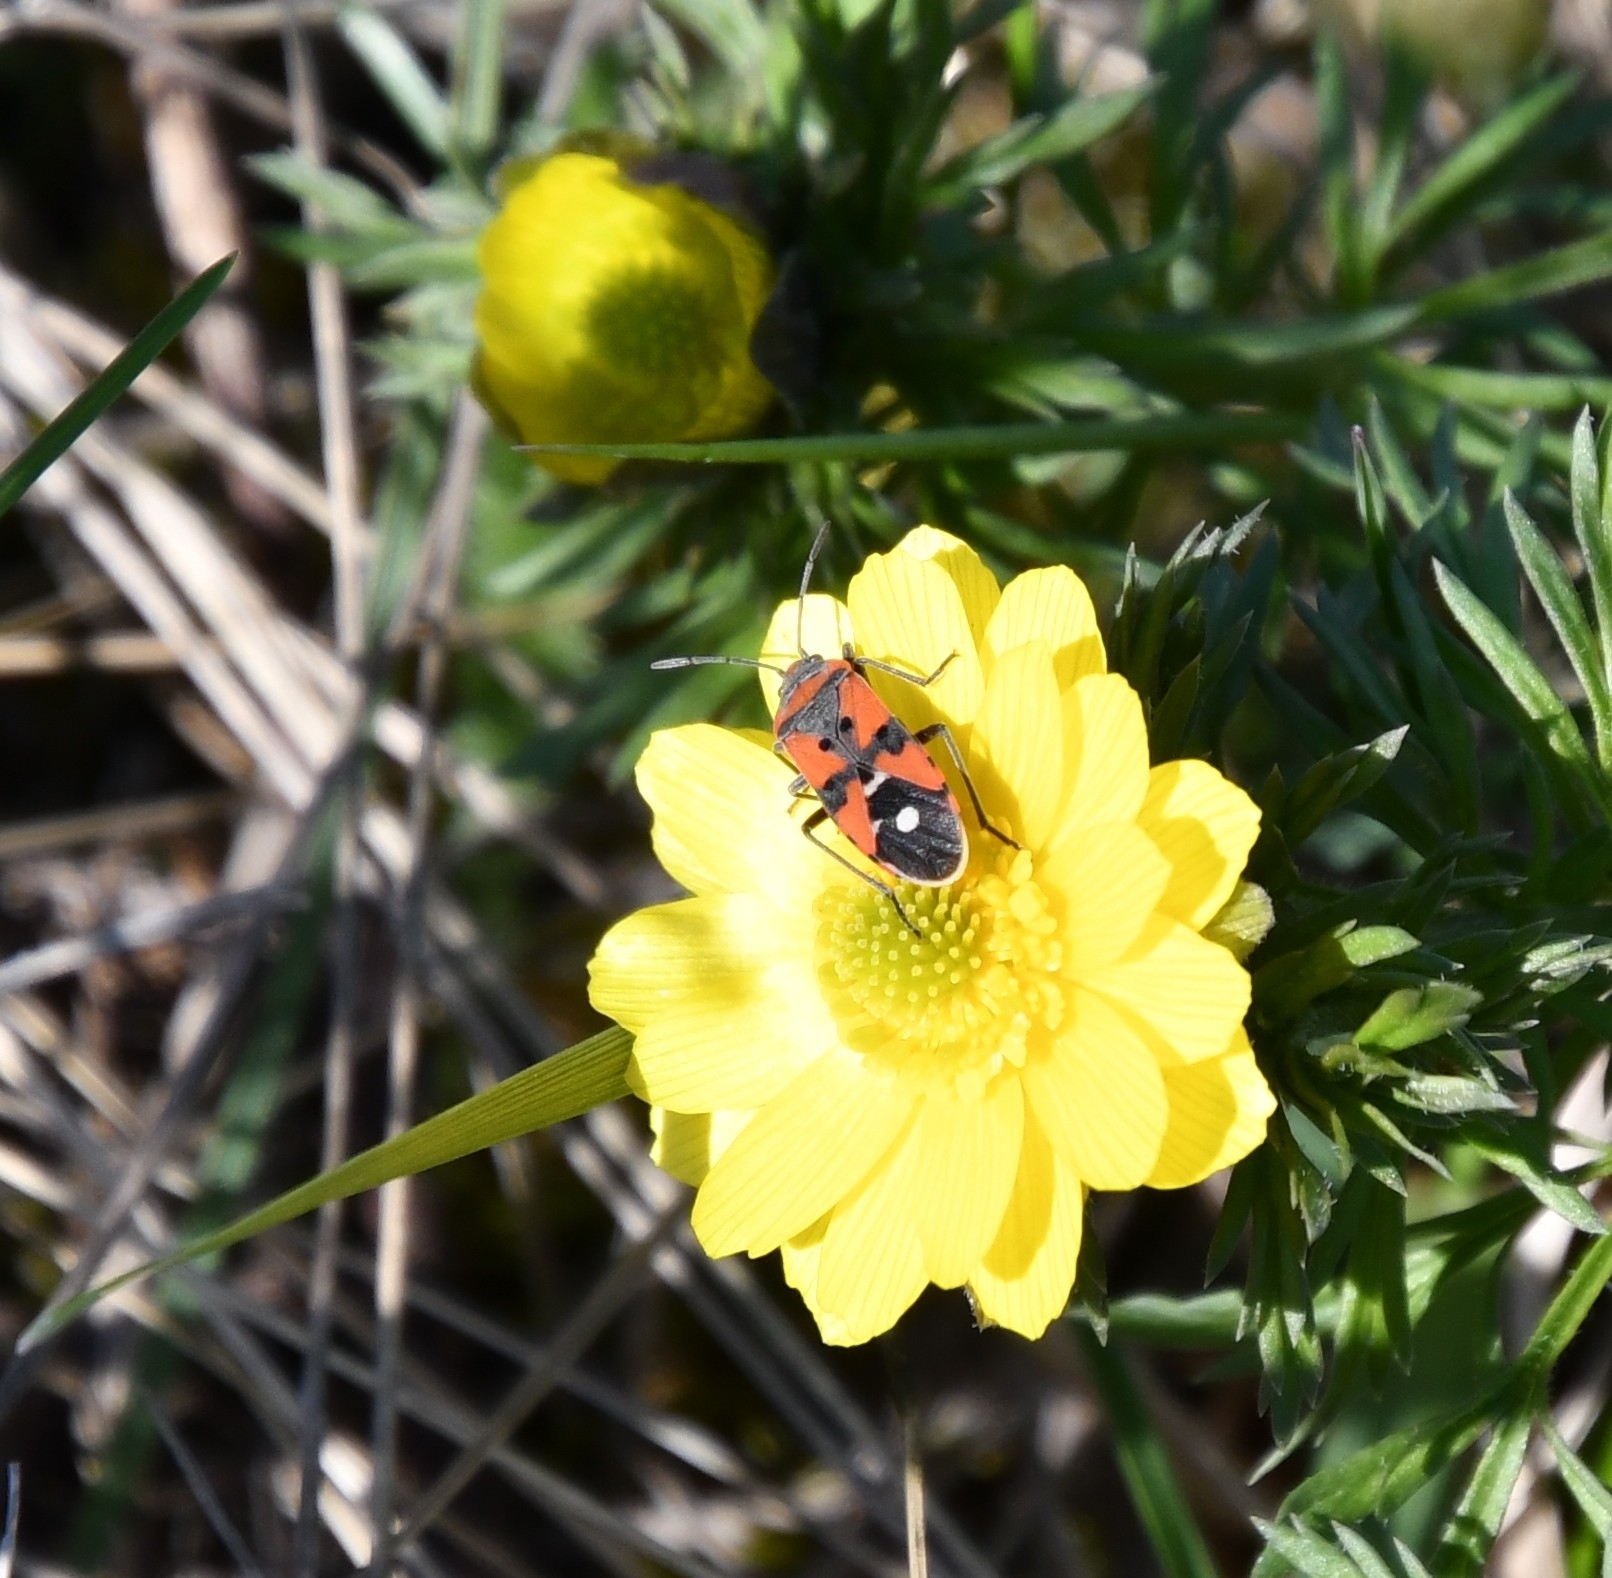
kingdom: Animalia
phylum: Arthropoda
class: Insecta
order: Hemiptera
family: Lygaeidae
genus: Lygaeus
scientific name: Lygaeus equestris
